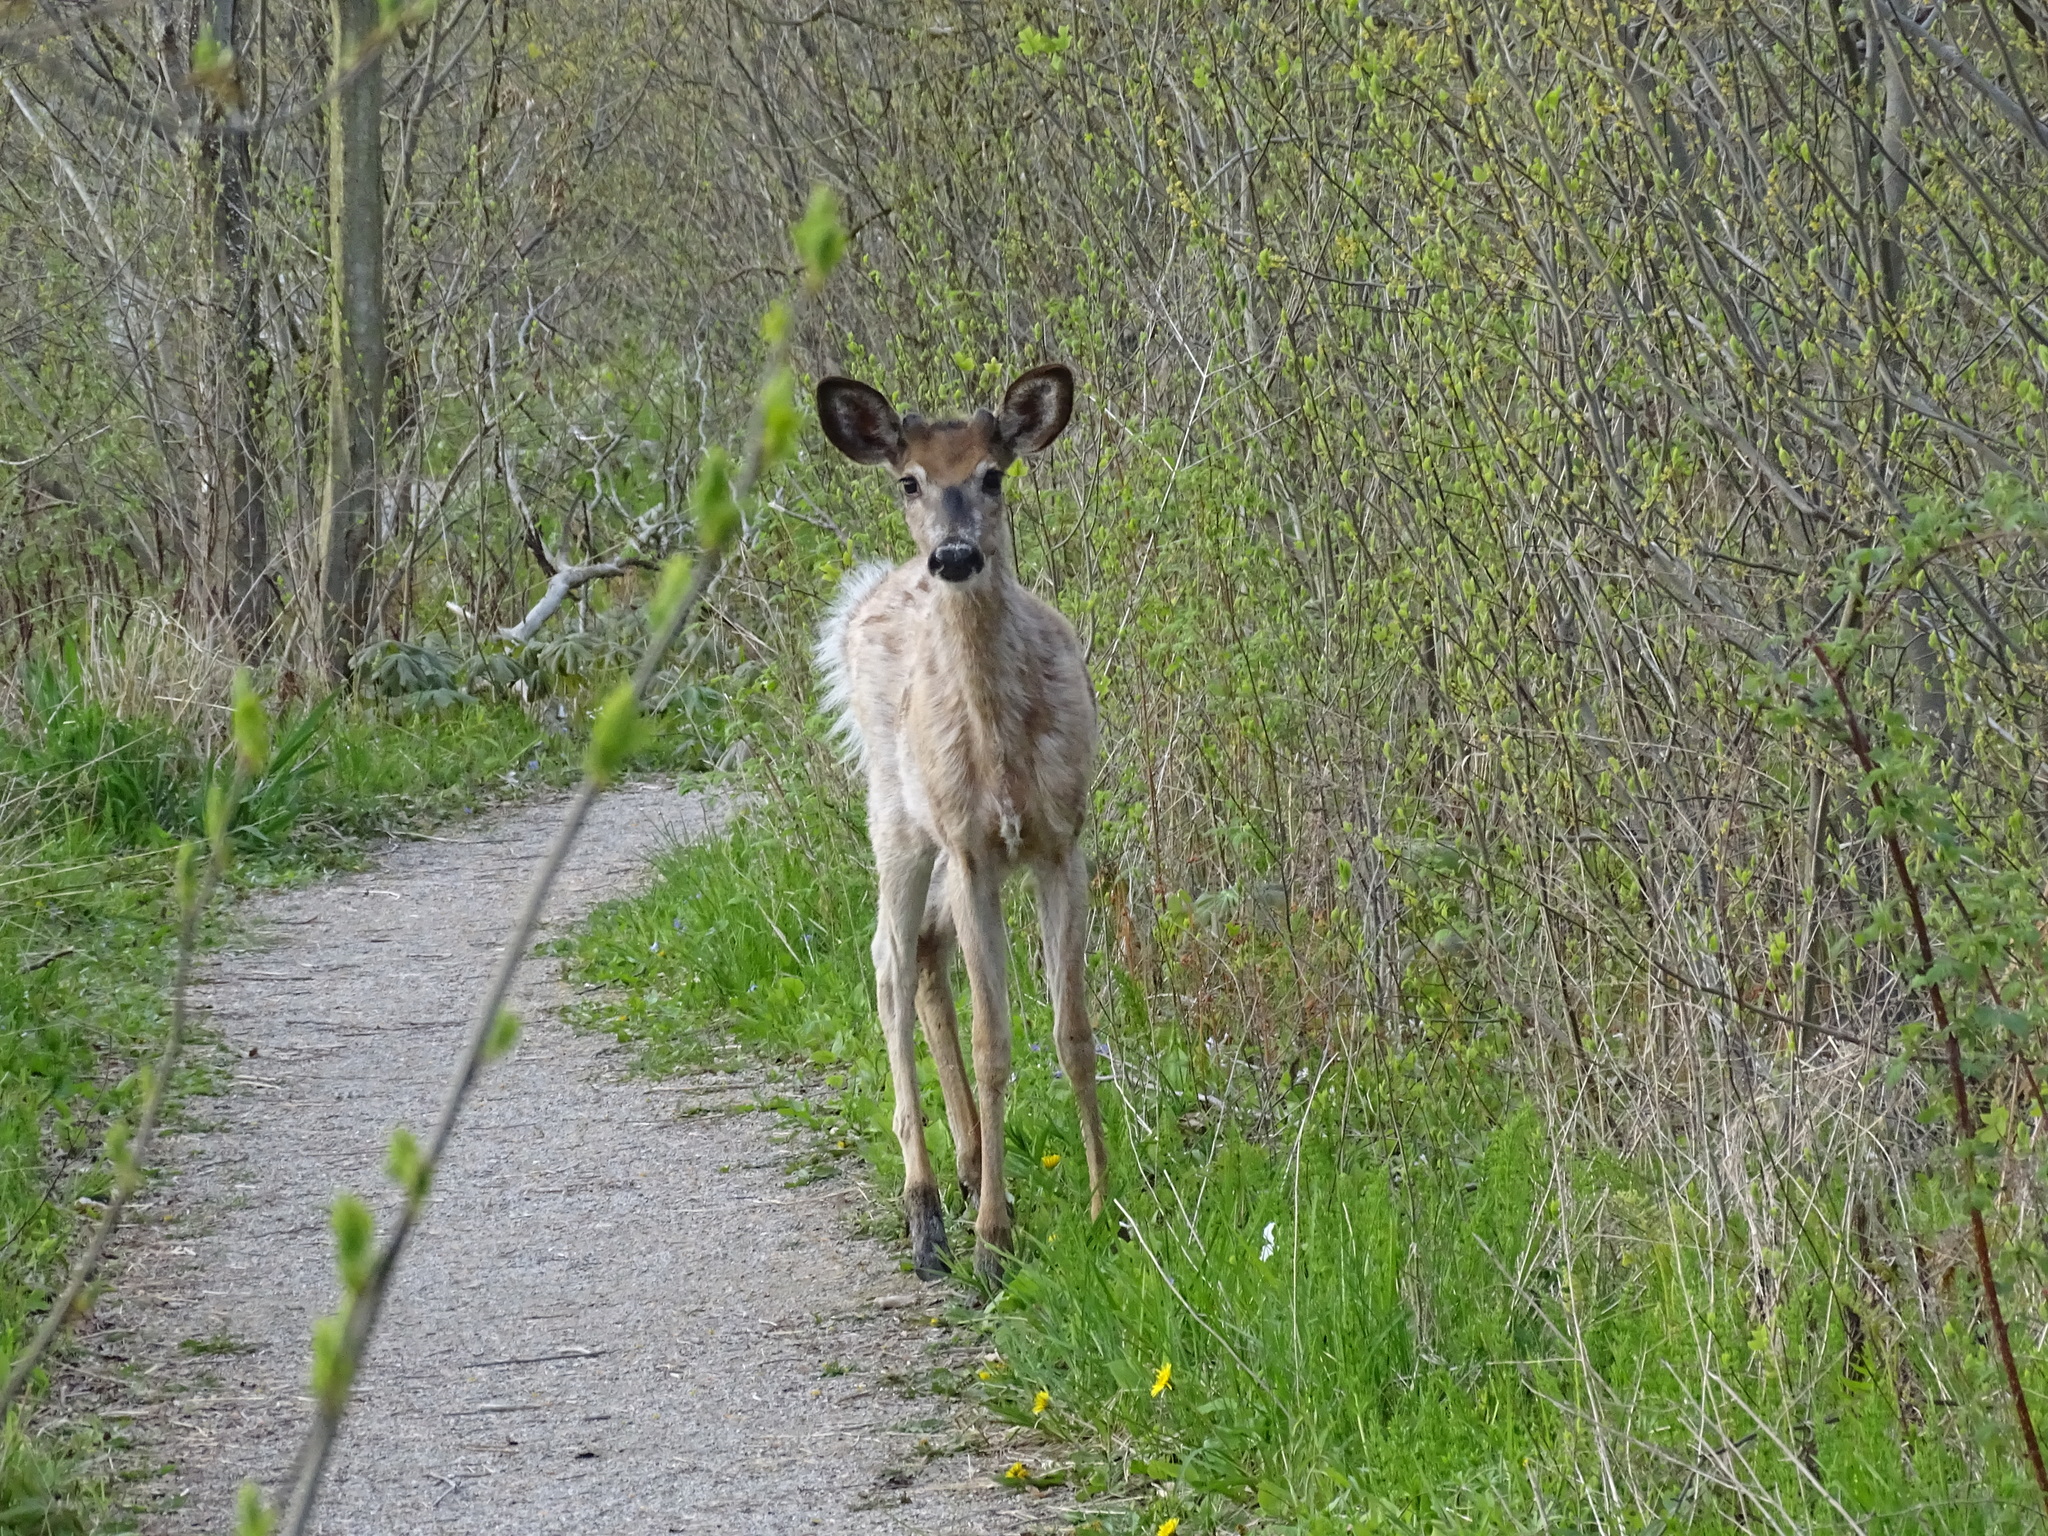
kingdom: Animalia
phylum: Chordata
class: Mammalia
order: Artiodactyla
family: Cervidae
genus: Odocoileus
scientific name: Odocoileus virginianus
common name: White-tailed deer
